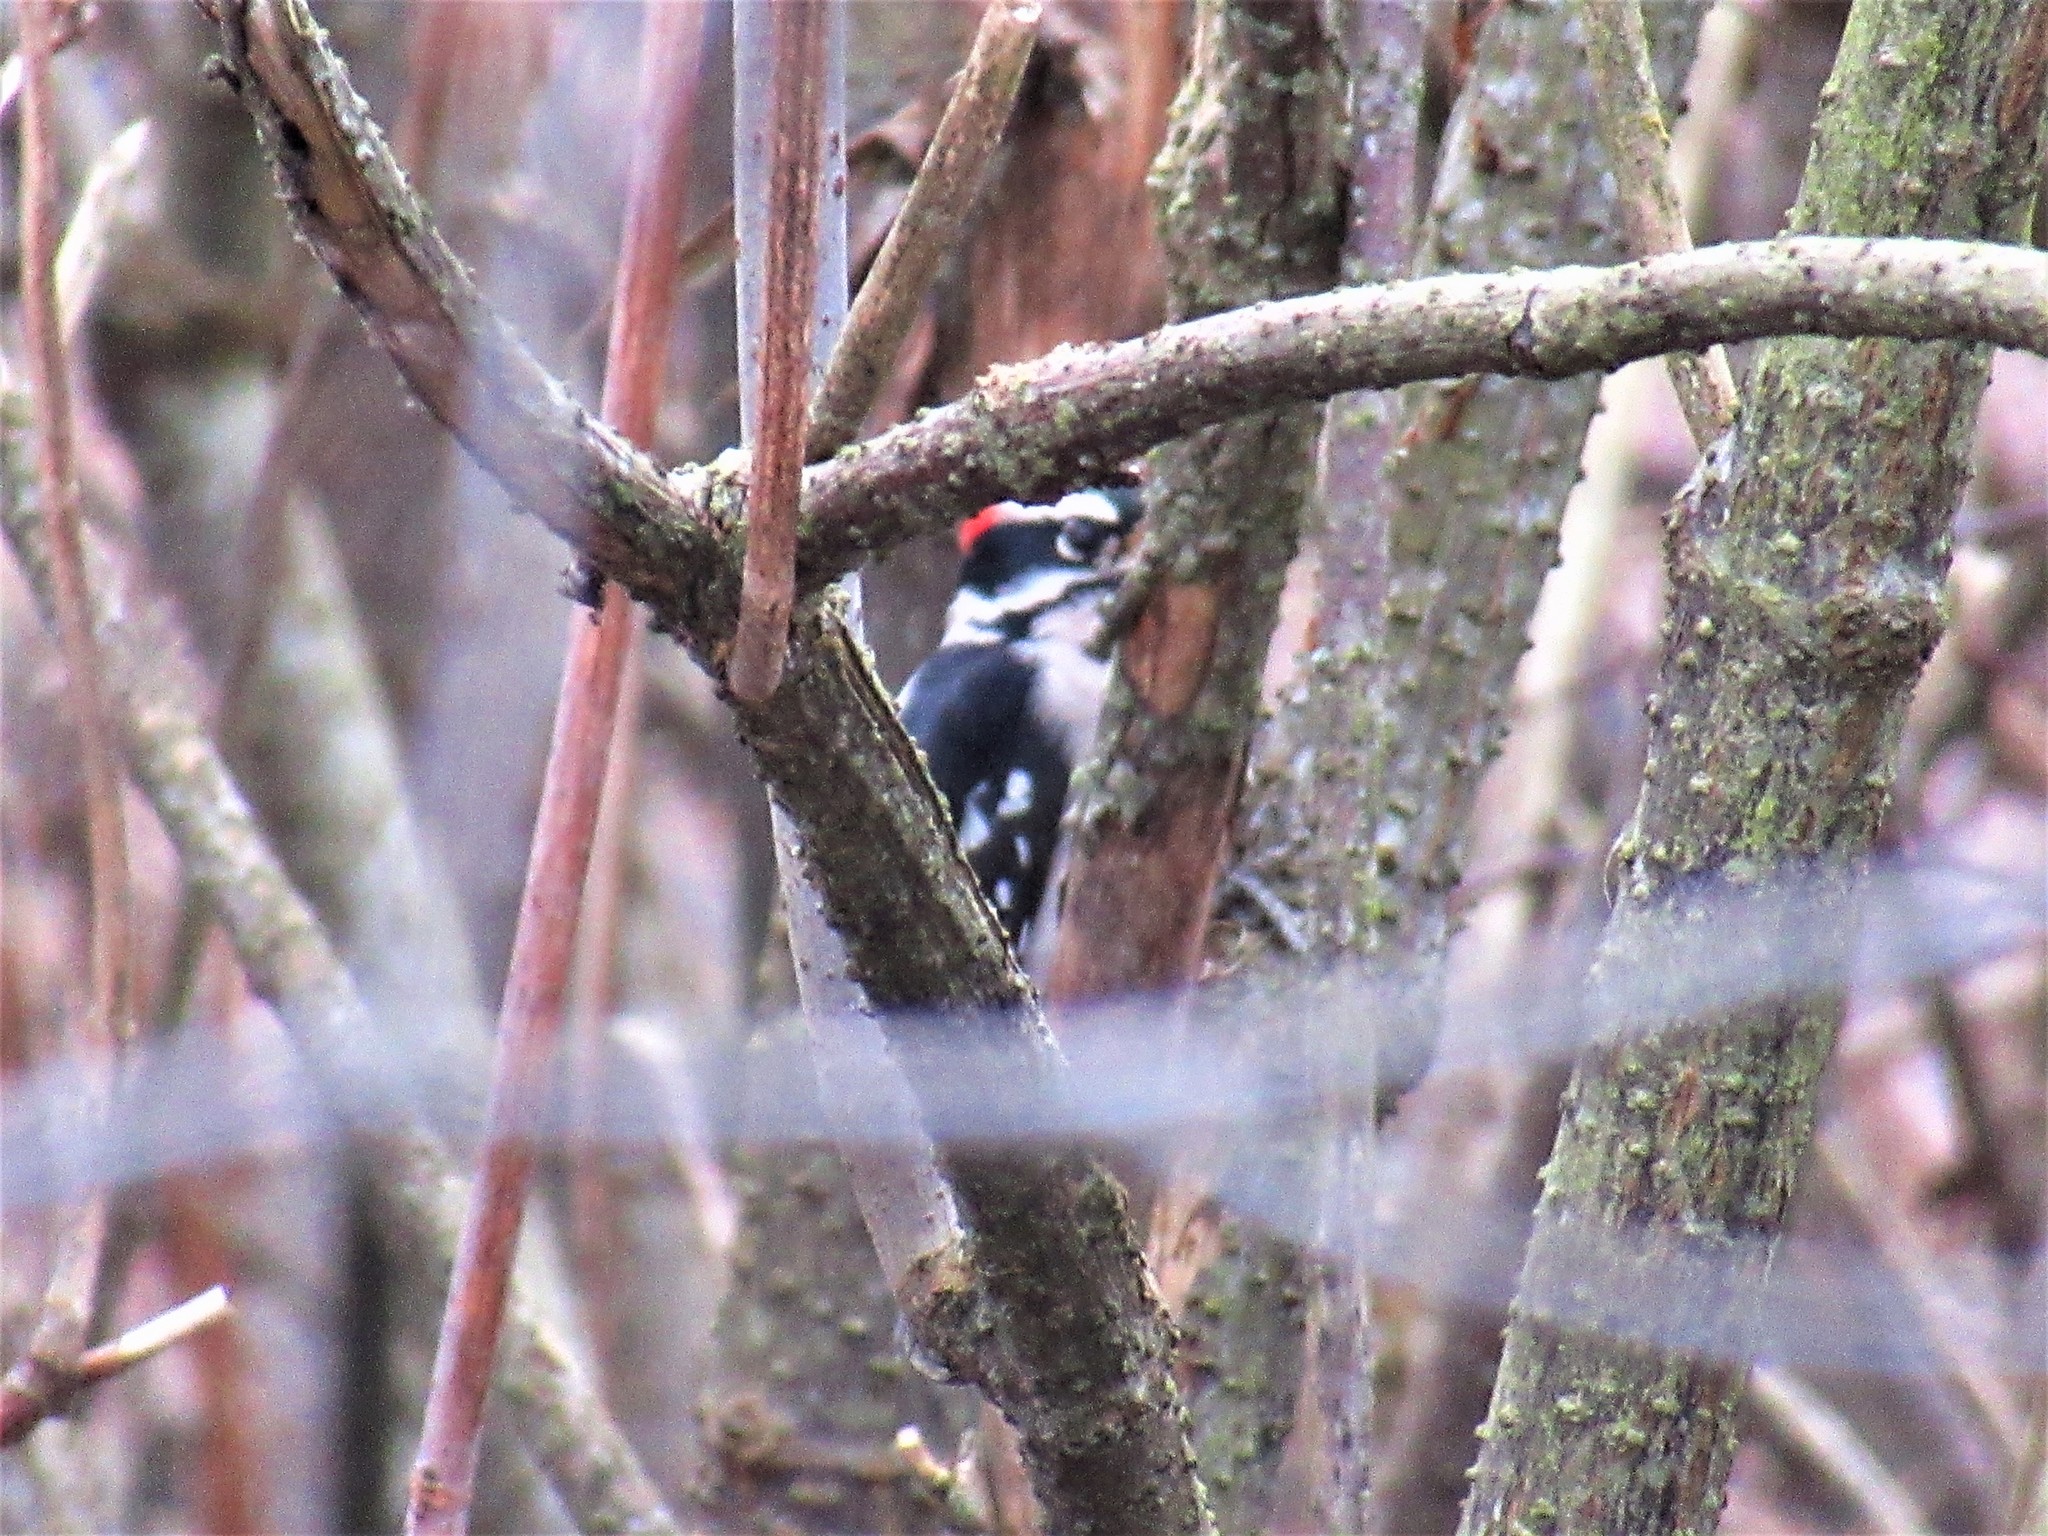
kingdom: Animalia
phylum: Chordata
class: Aves
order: Piciformes
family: Picidae
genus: Dryobates
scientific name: Dryobates pubescens
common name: Downy woodpecker
